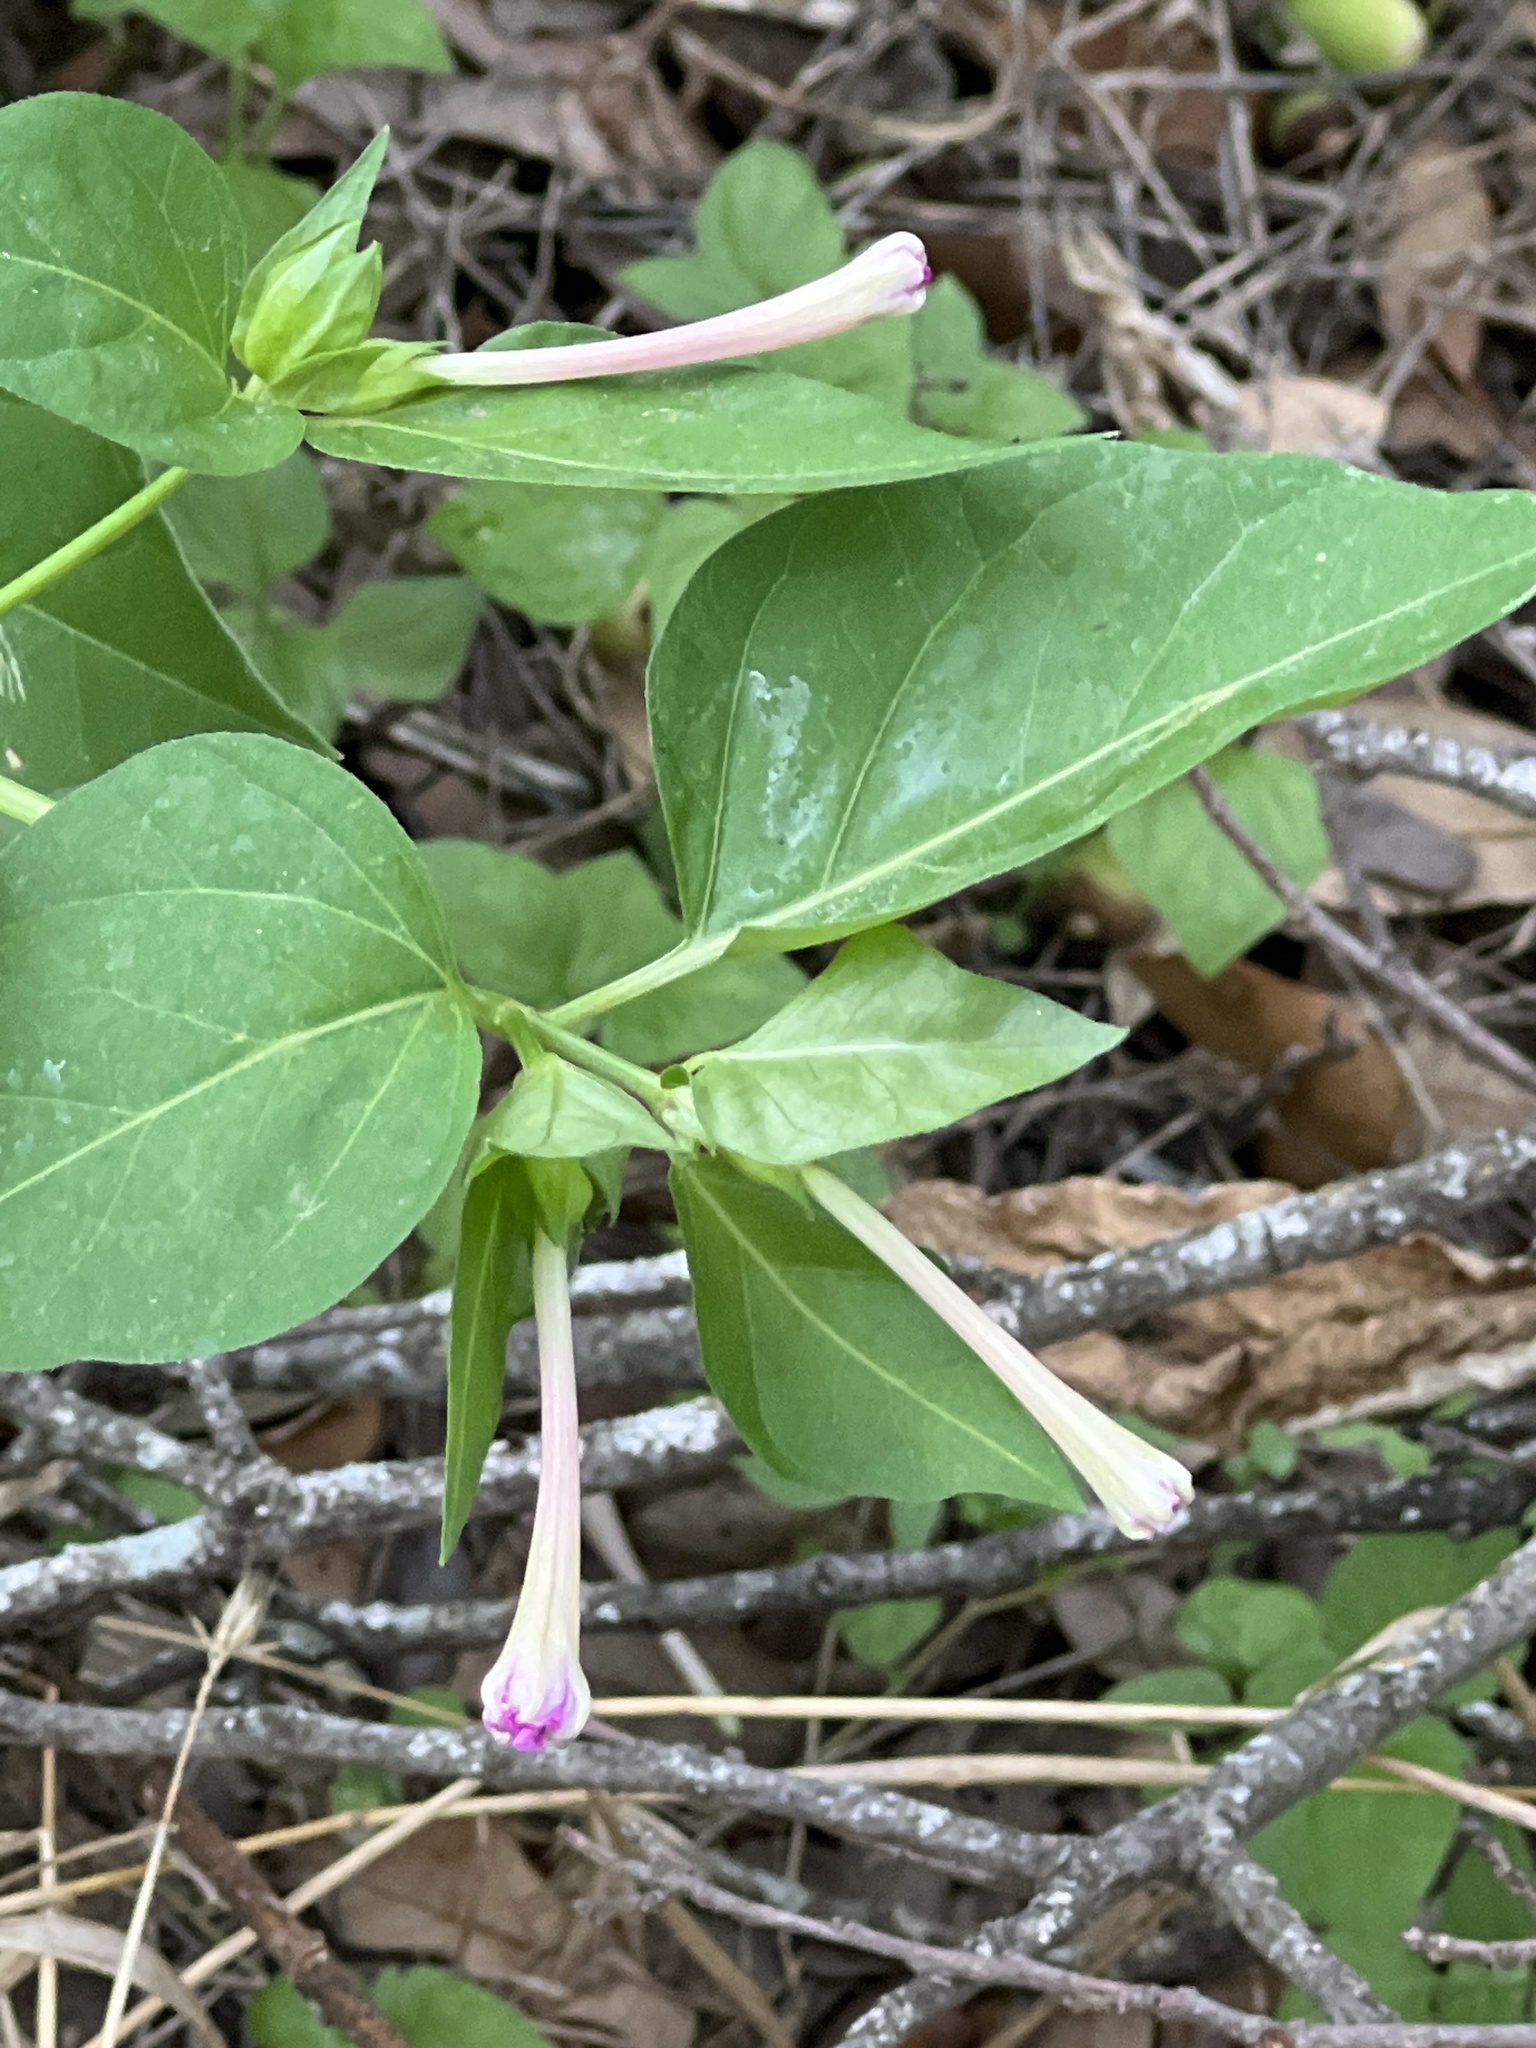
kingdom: Plantae
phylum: Tracheophyta
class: Magnoliopsida
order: Caryophyllales
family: Nyctaginaceae
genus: Mirabilis
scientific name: Mirabilis jalapa
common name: Marvel-of-peru
